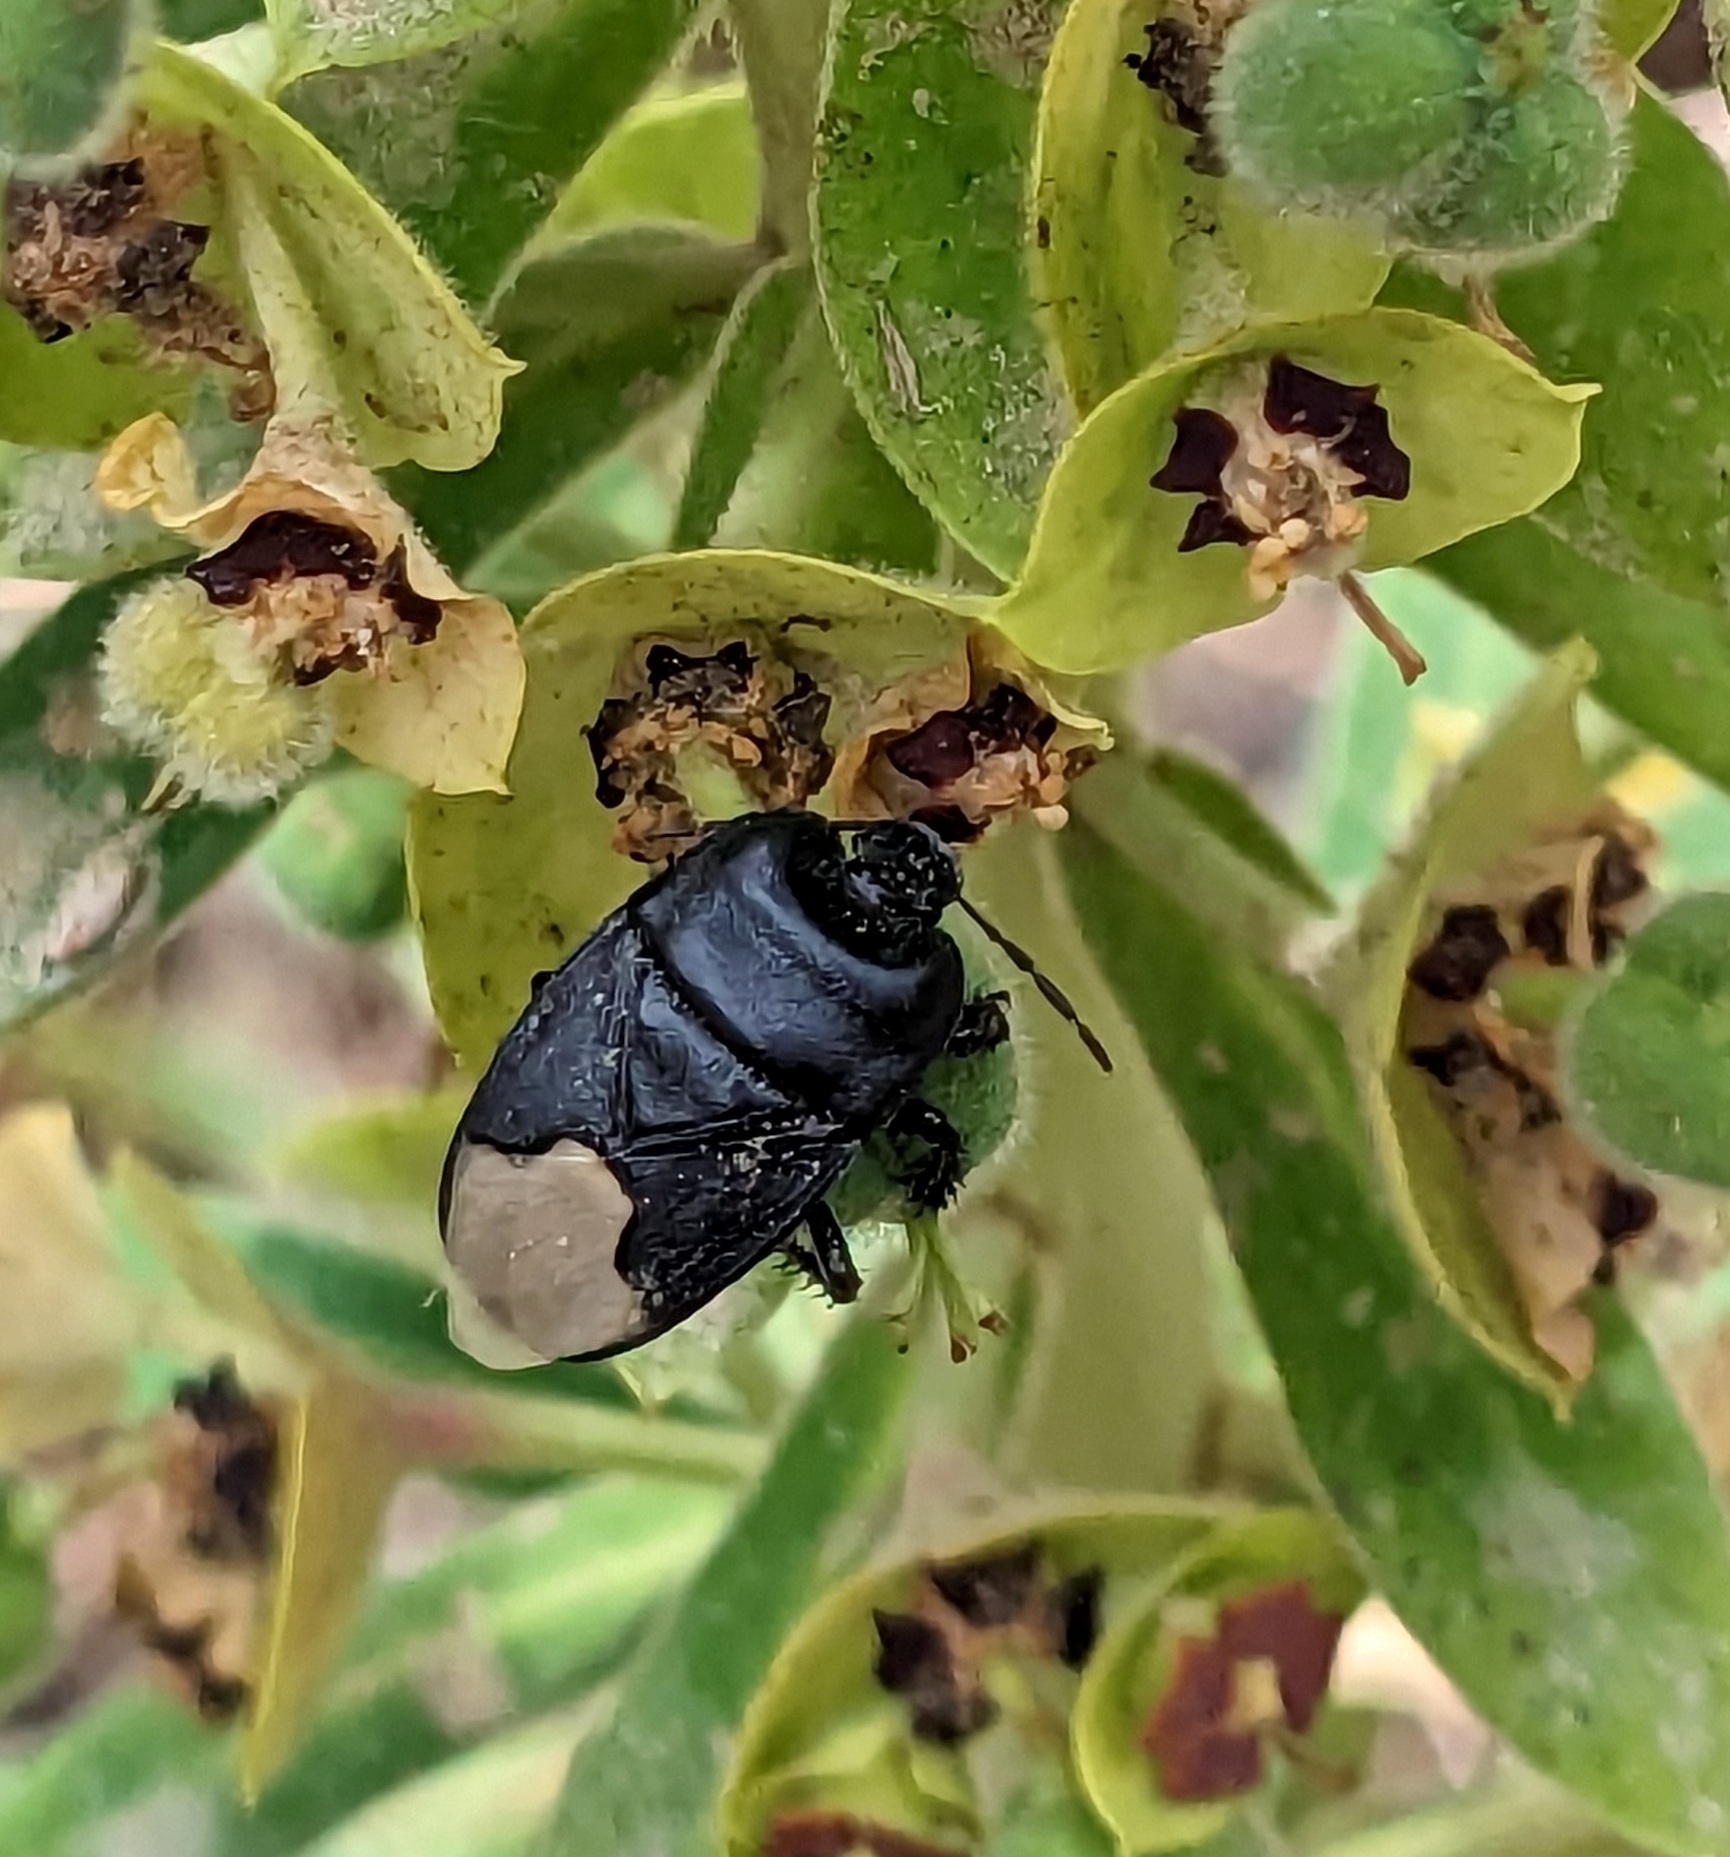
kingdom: Animalia
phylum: Arthropoda
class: Insecta
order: Hemiptera
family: Cydnidae
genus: Cydnus
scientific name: Cydnus aterrimus
